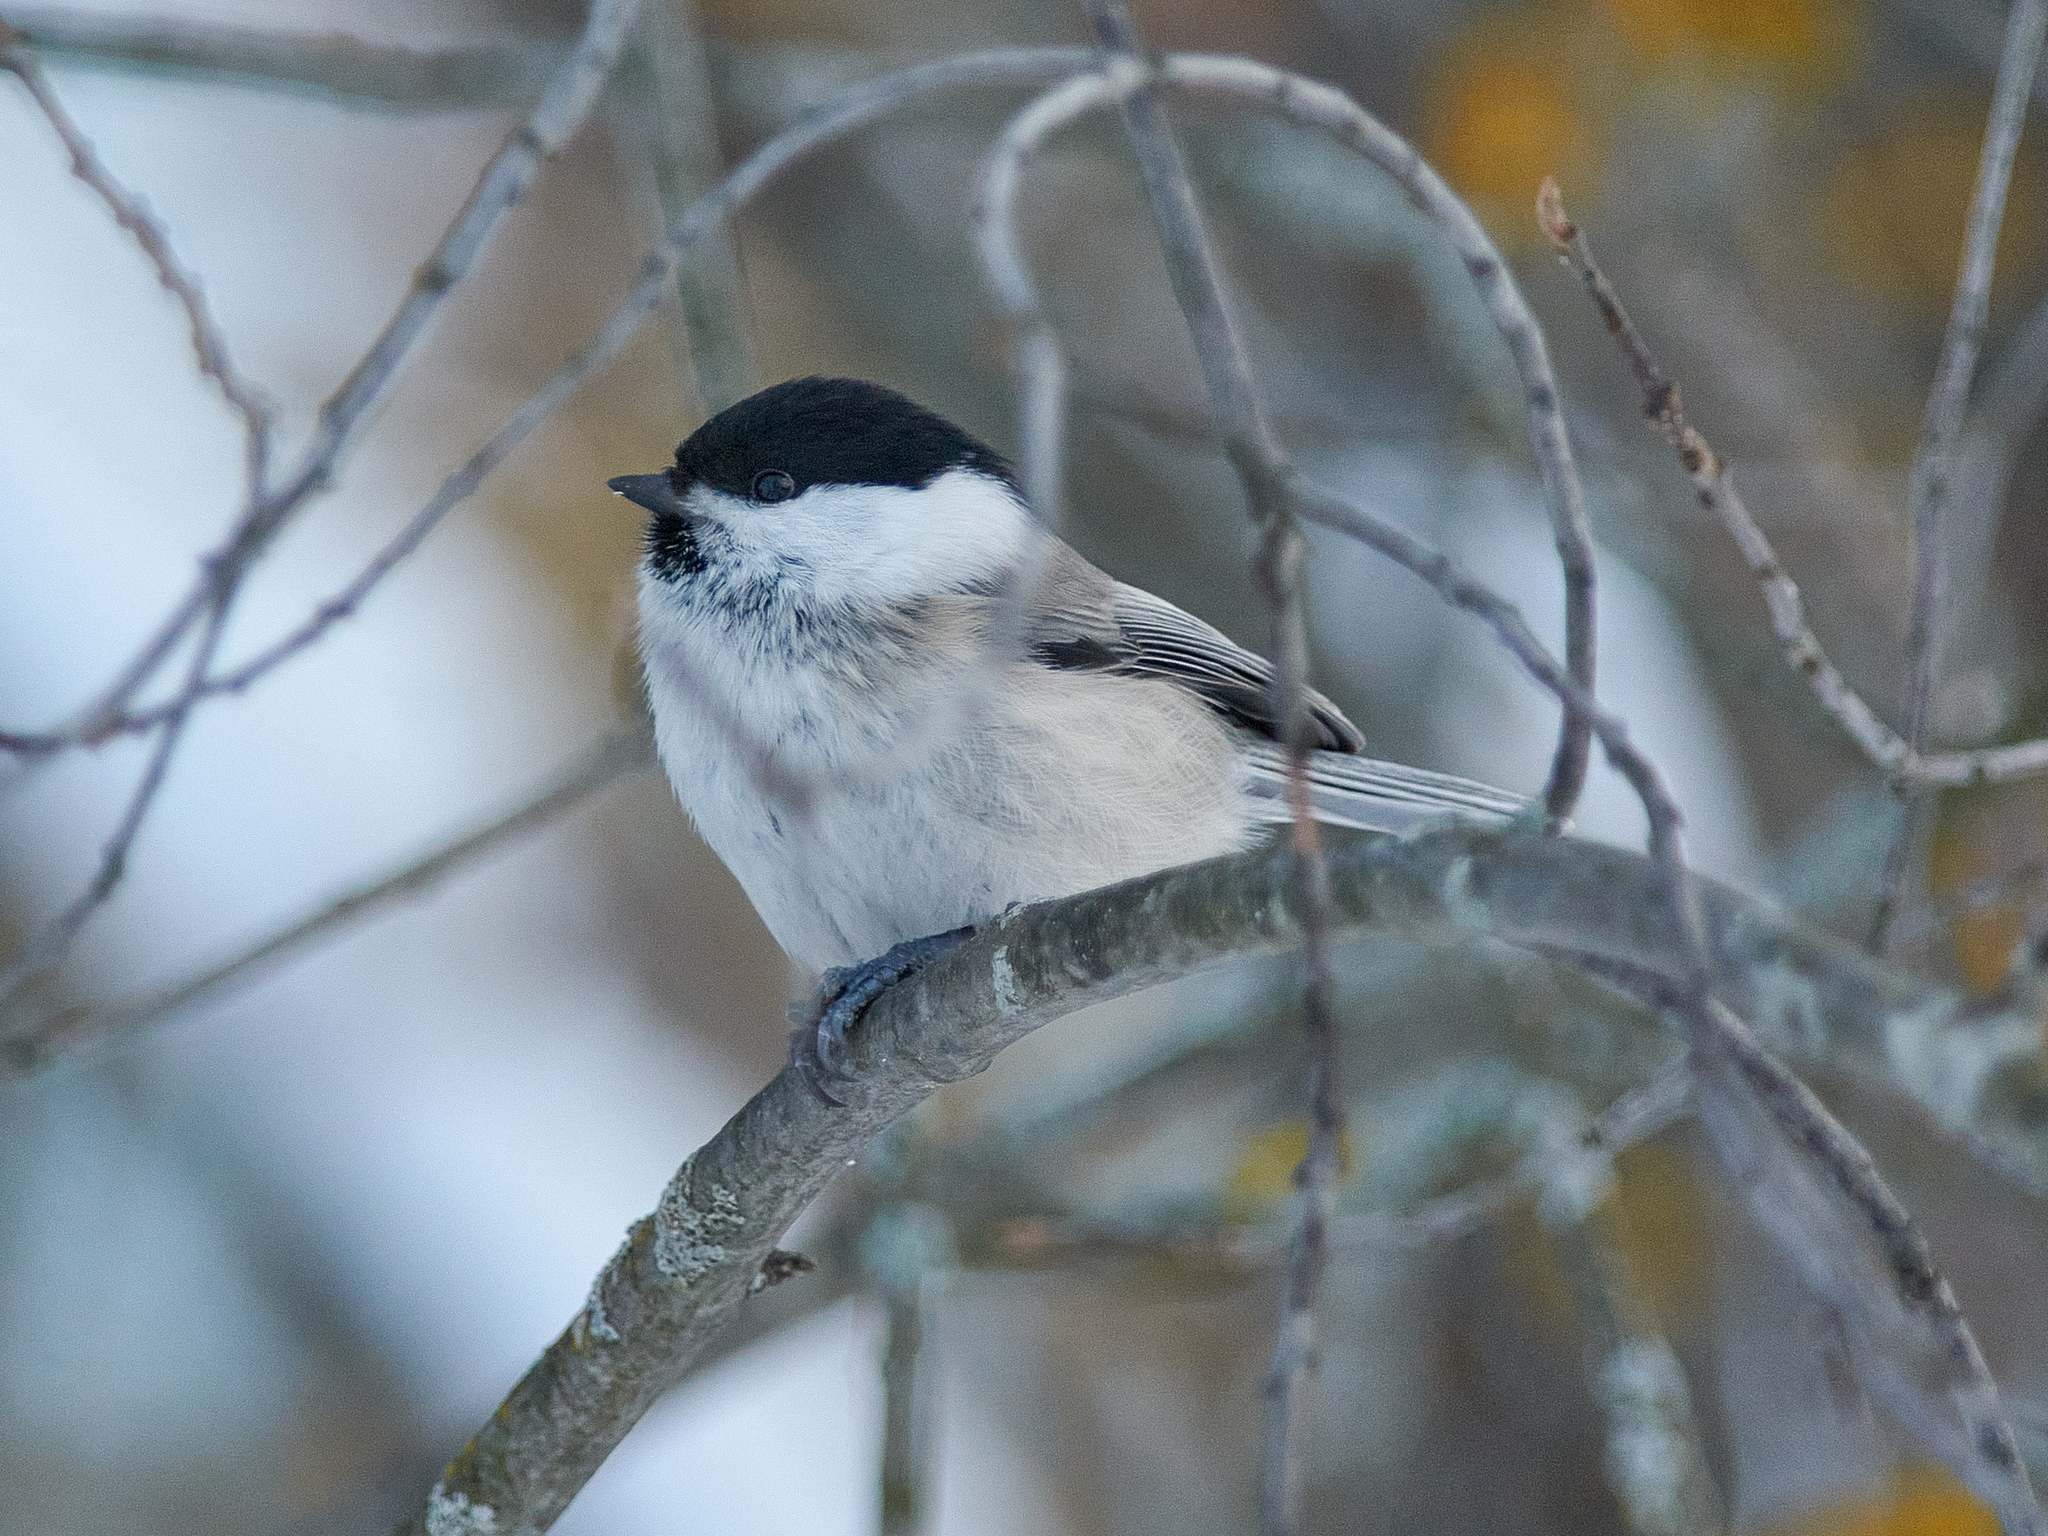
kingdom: Animalia
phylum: Chordata
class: Aves
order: Passeriformes
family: Paridae
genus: Poecile
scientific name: Poecile montanus
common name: Willow tit
